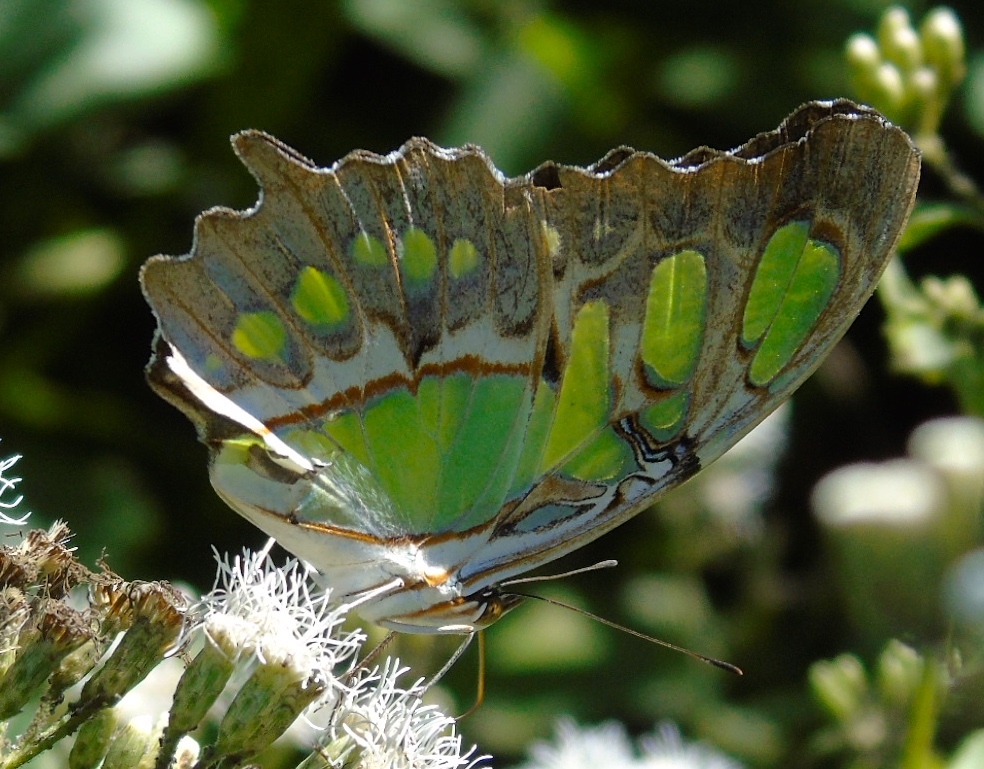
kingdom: Animalia
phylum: Arthropoda
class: Insecta
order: Lepidoptera
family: Nymphalidae
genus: Siproeta
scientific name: Siproeta stelenes
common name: Malachite
